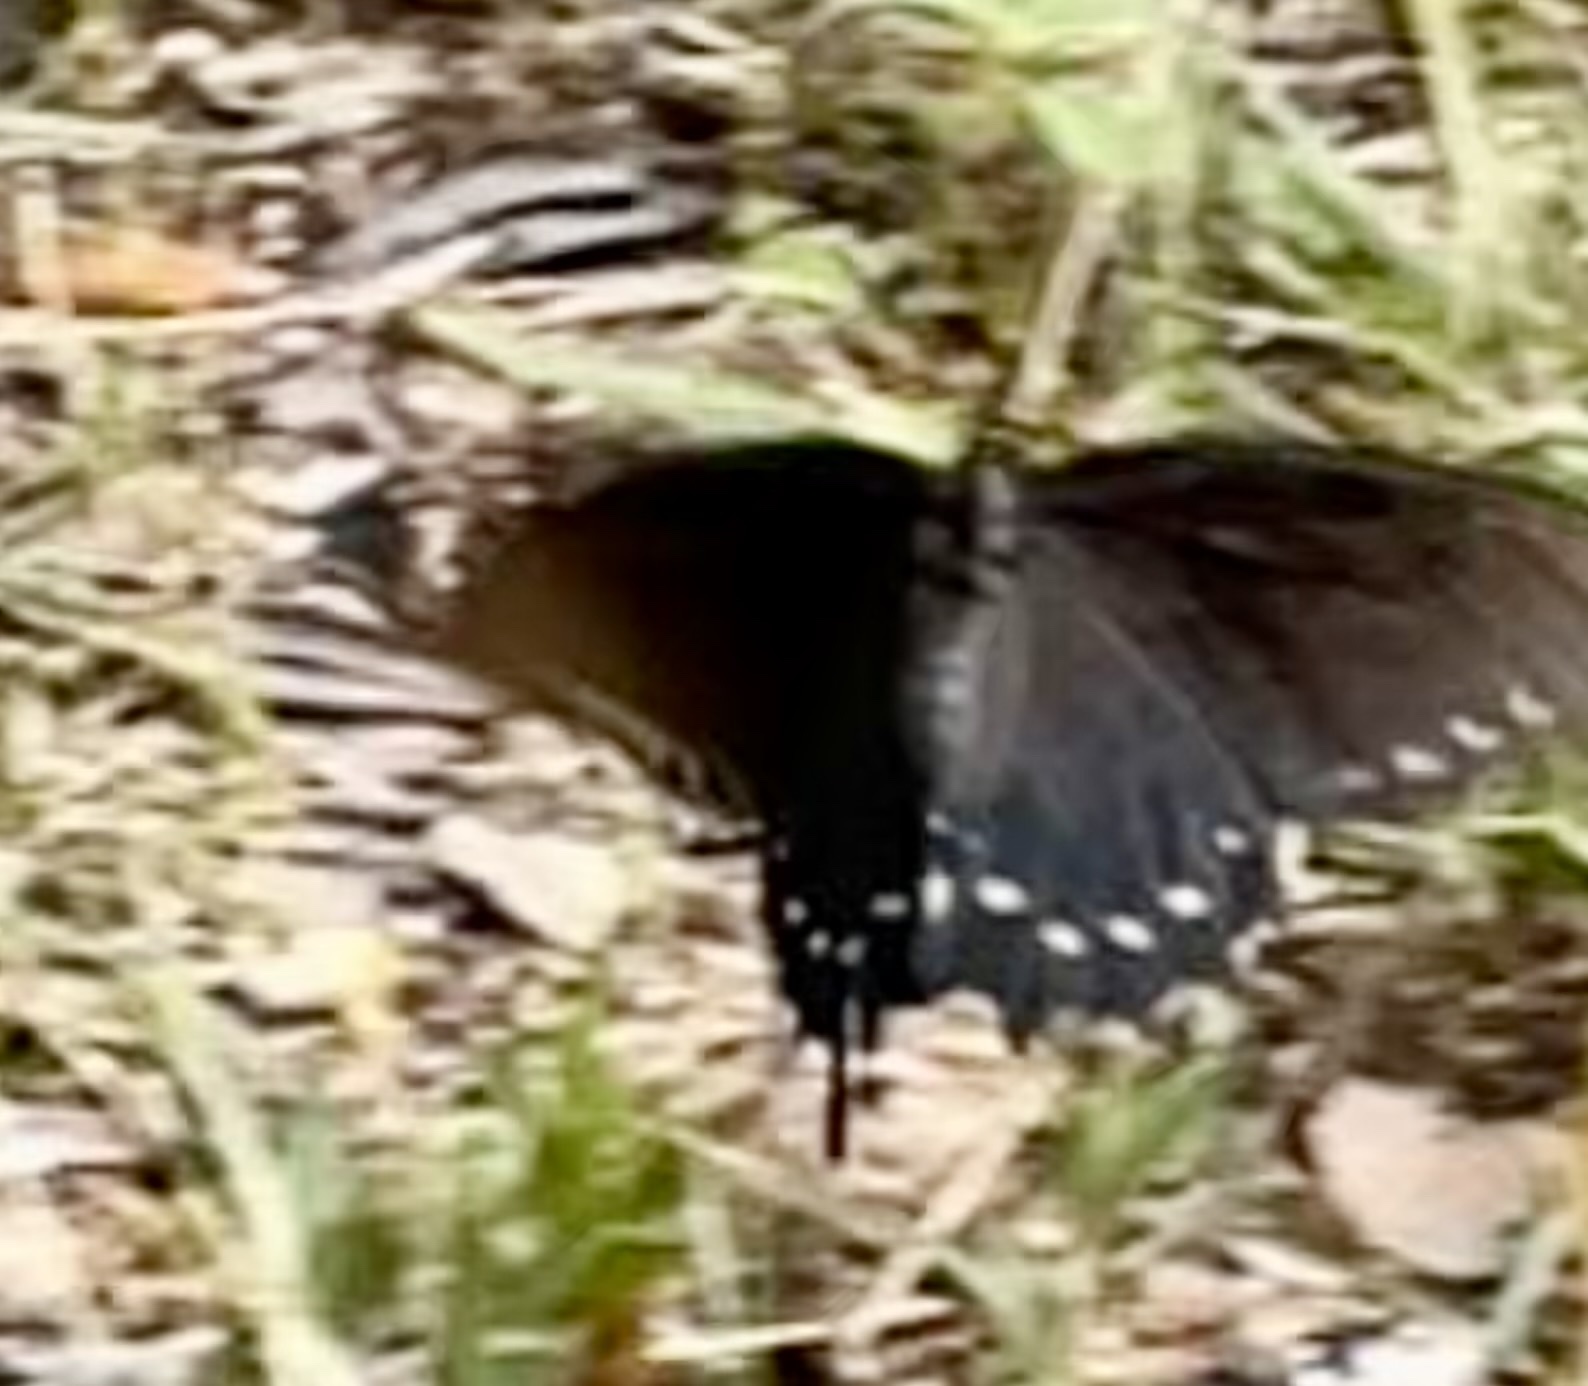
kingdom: Animalia
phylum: Arthropoda
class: Insecta
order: Lepidoptera
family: Papilionidae
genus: Battus
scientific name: Battus philenor
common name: Pipevine swallowtail
